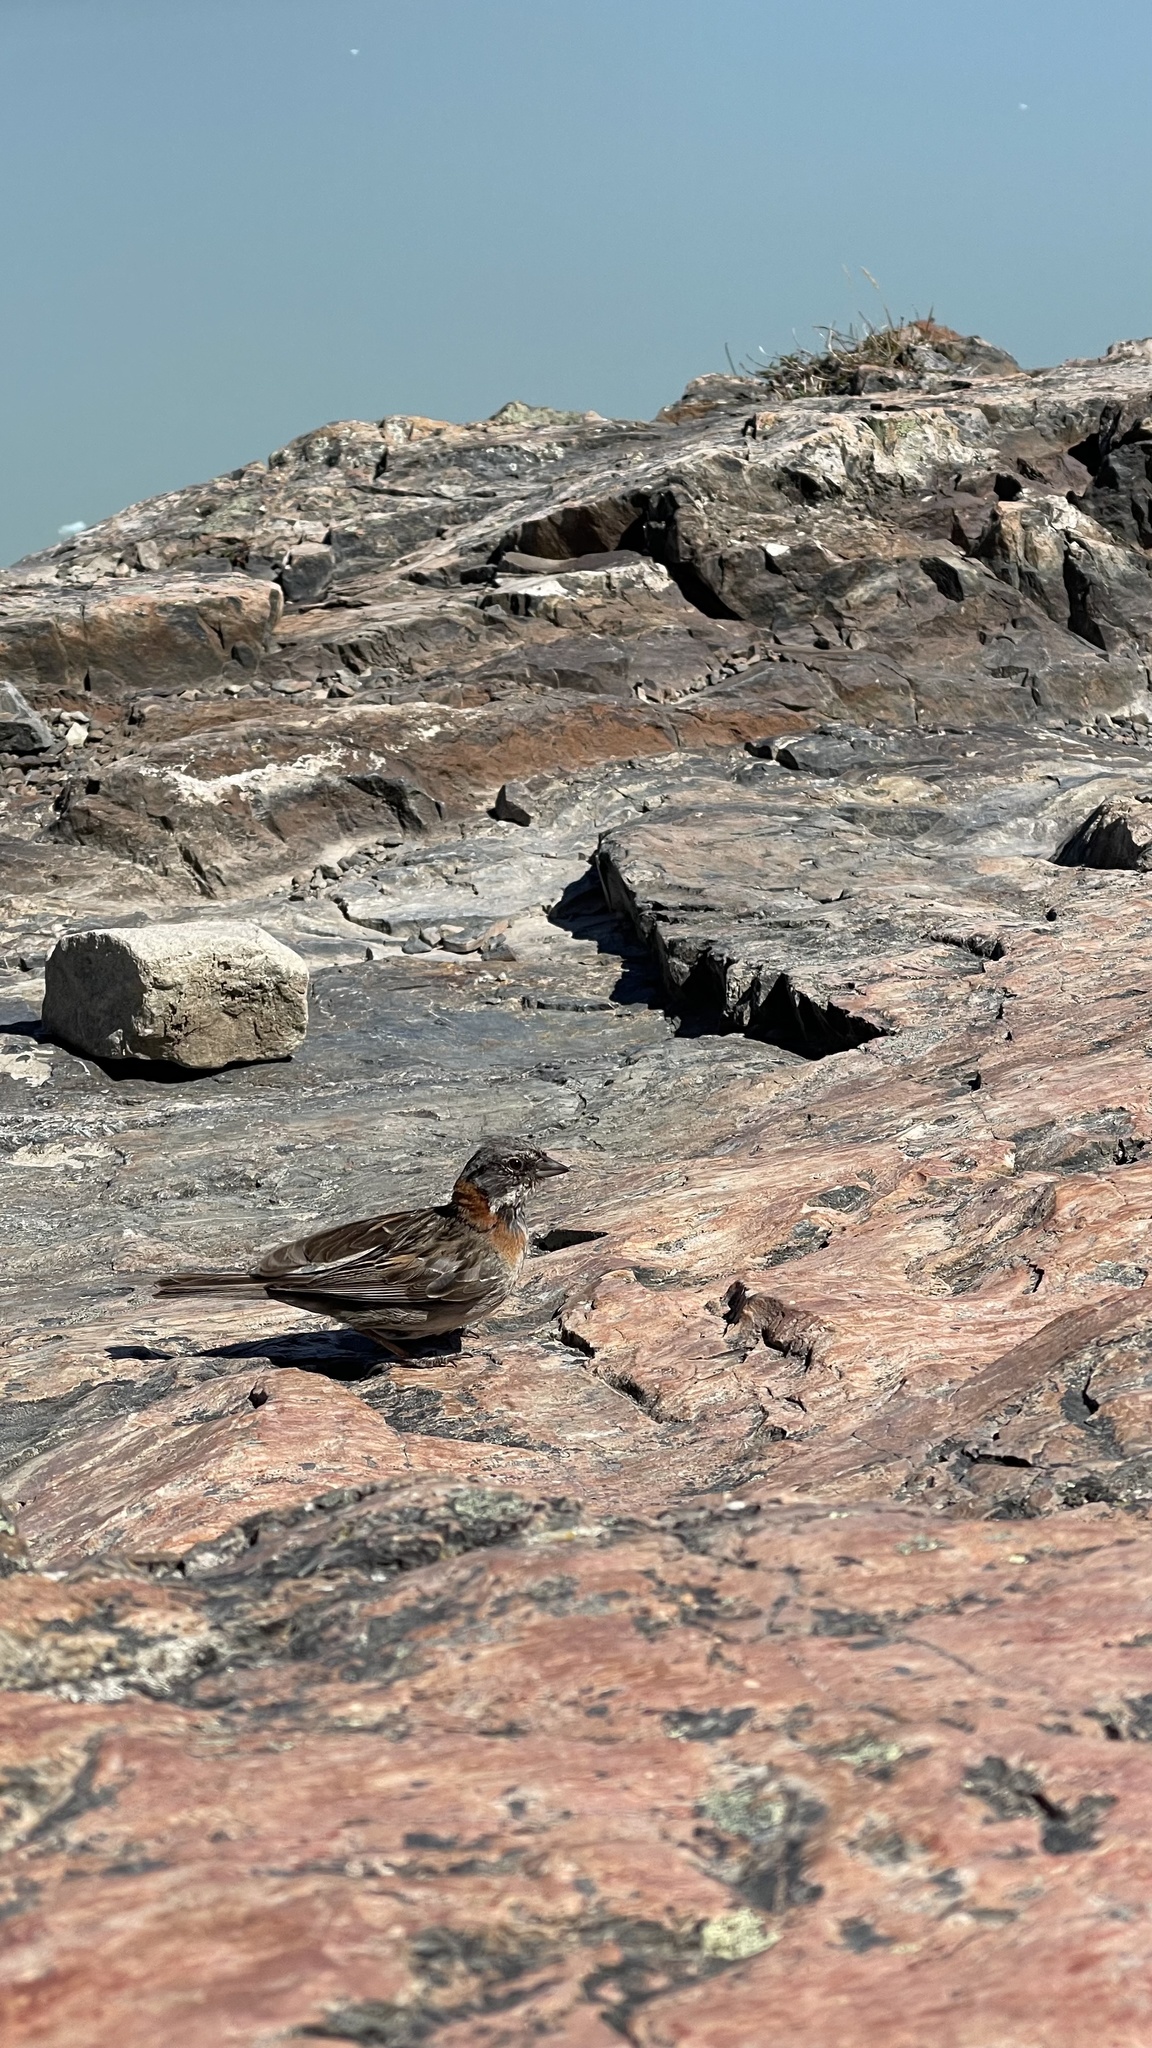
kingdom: Animalia
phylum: Chordata
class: Aves
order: Passeriformes
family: Passerellidae
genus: Zonotrichia
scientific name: Zonotrichia capensis
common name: Rufous-collared sparrow
